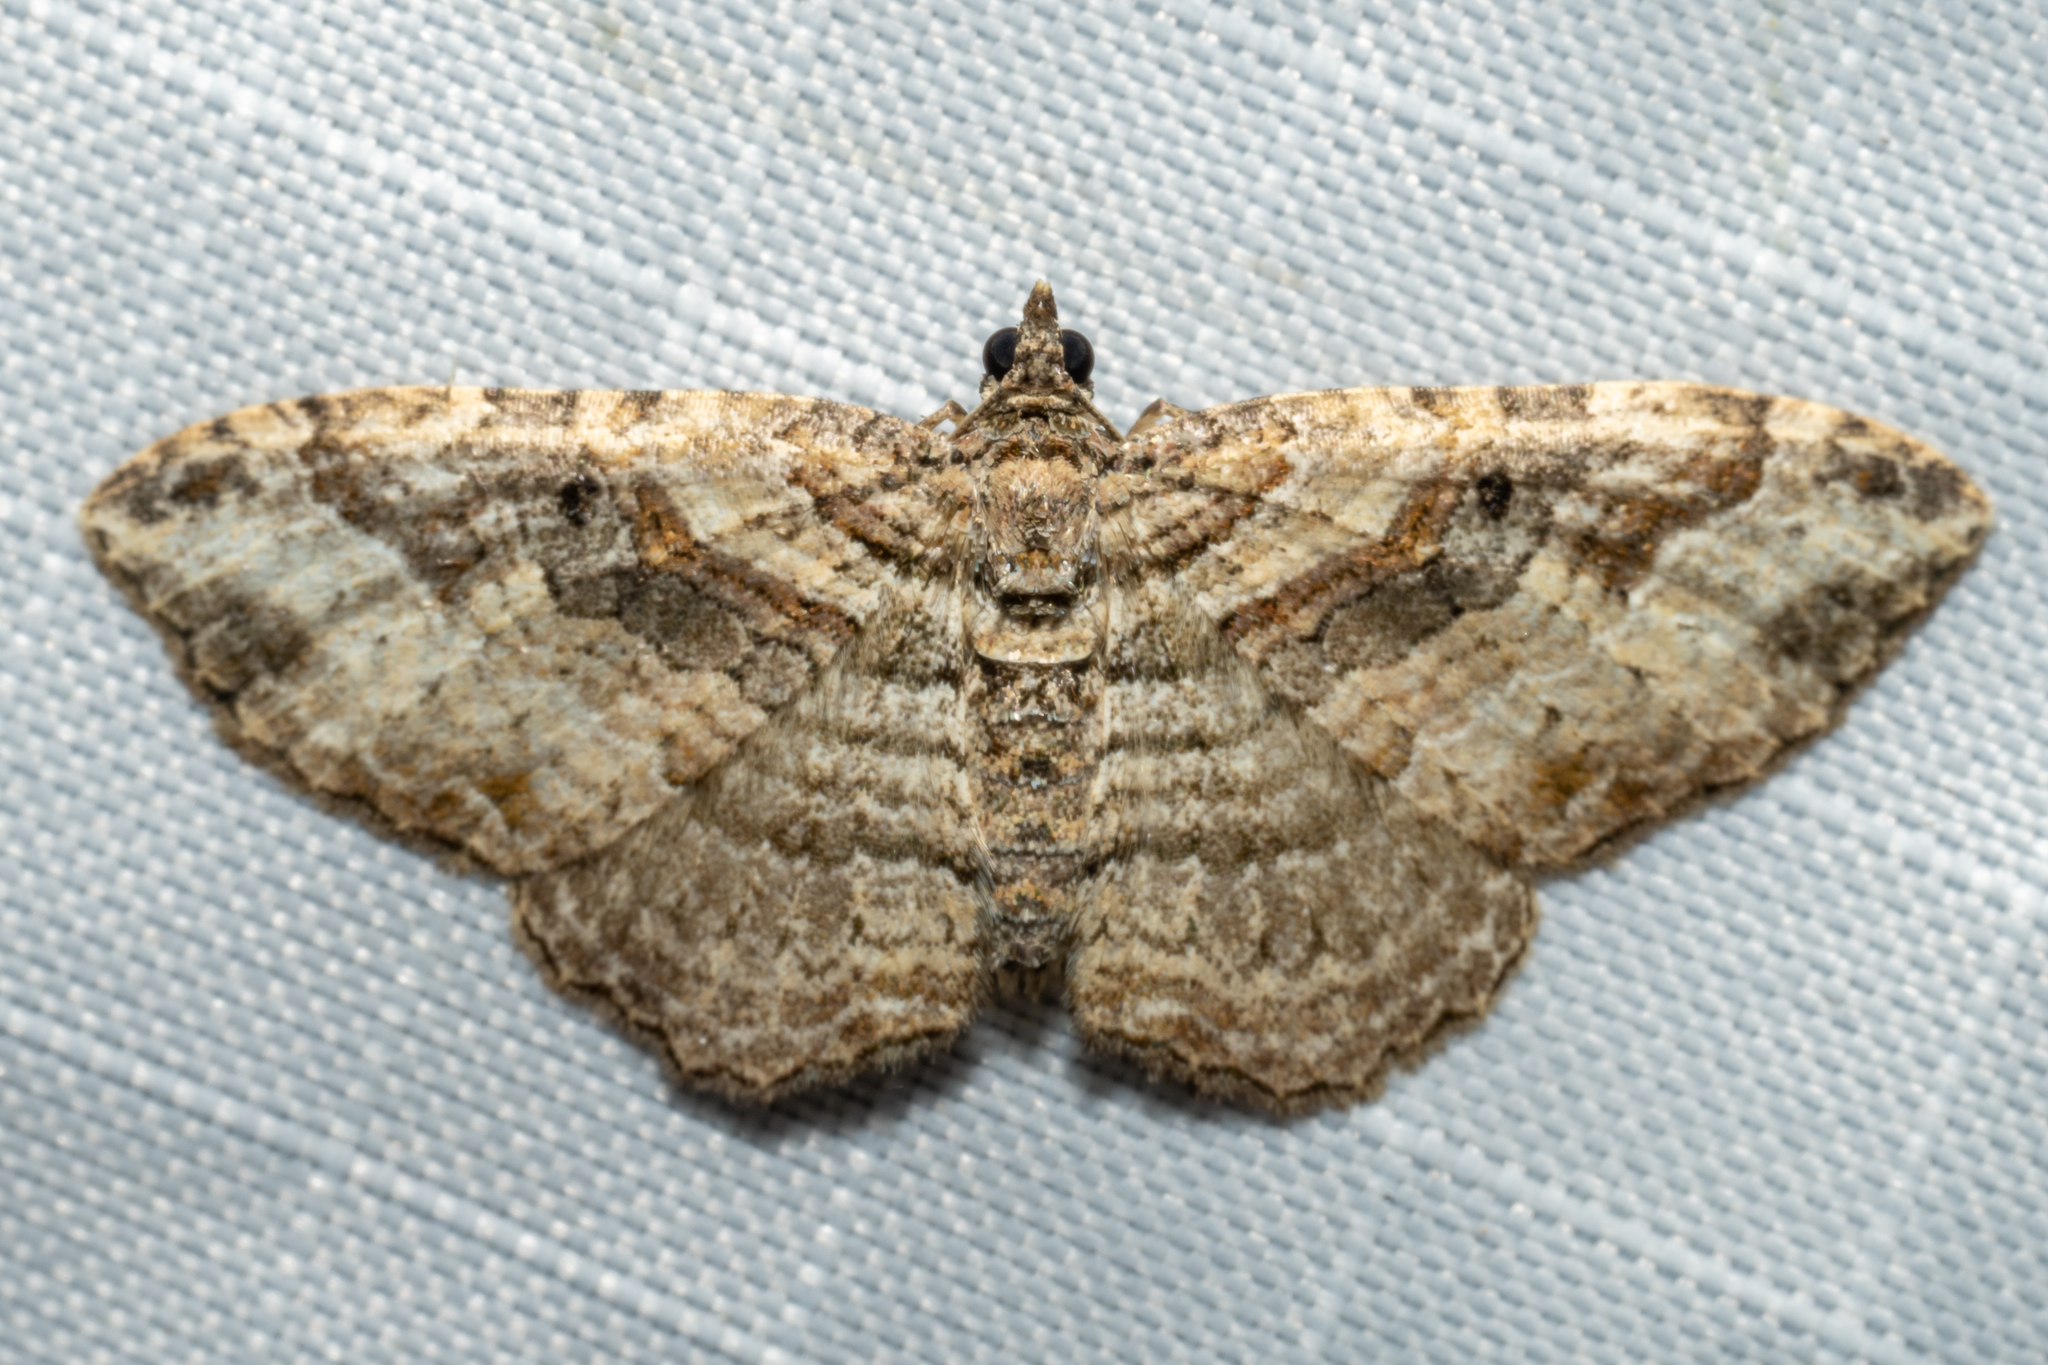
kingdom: Animalia
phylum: Arthropoda
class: Insecta
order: Lepidoptera
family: Geometridae
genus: Costaconvexa
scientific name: Costaconvexa centrostrigaria
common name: Bent-line carpet
